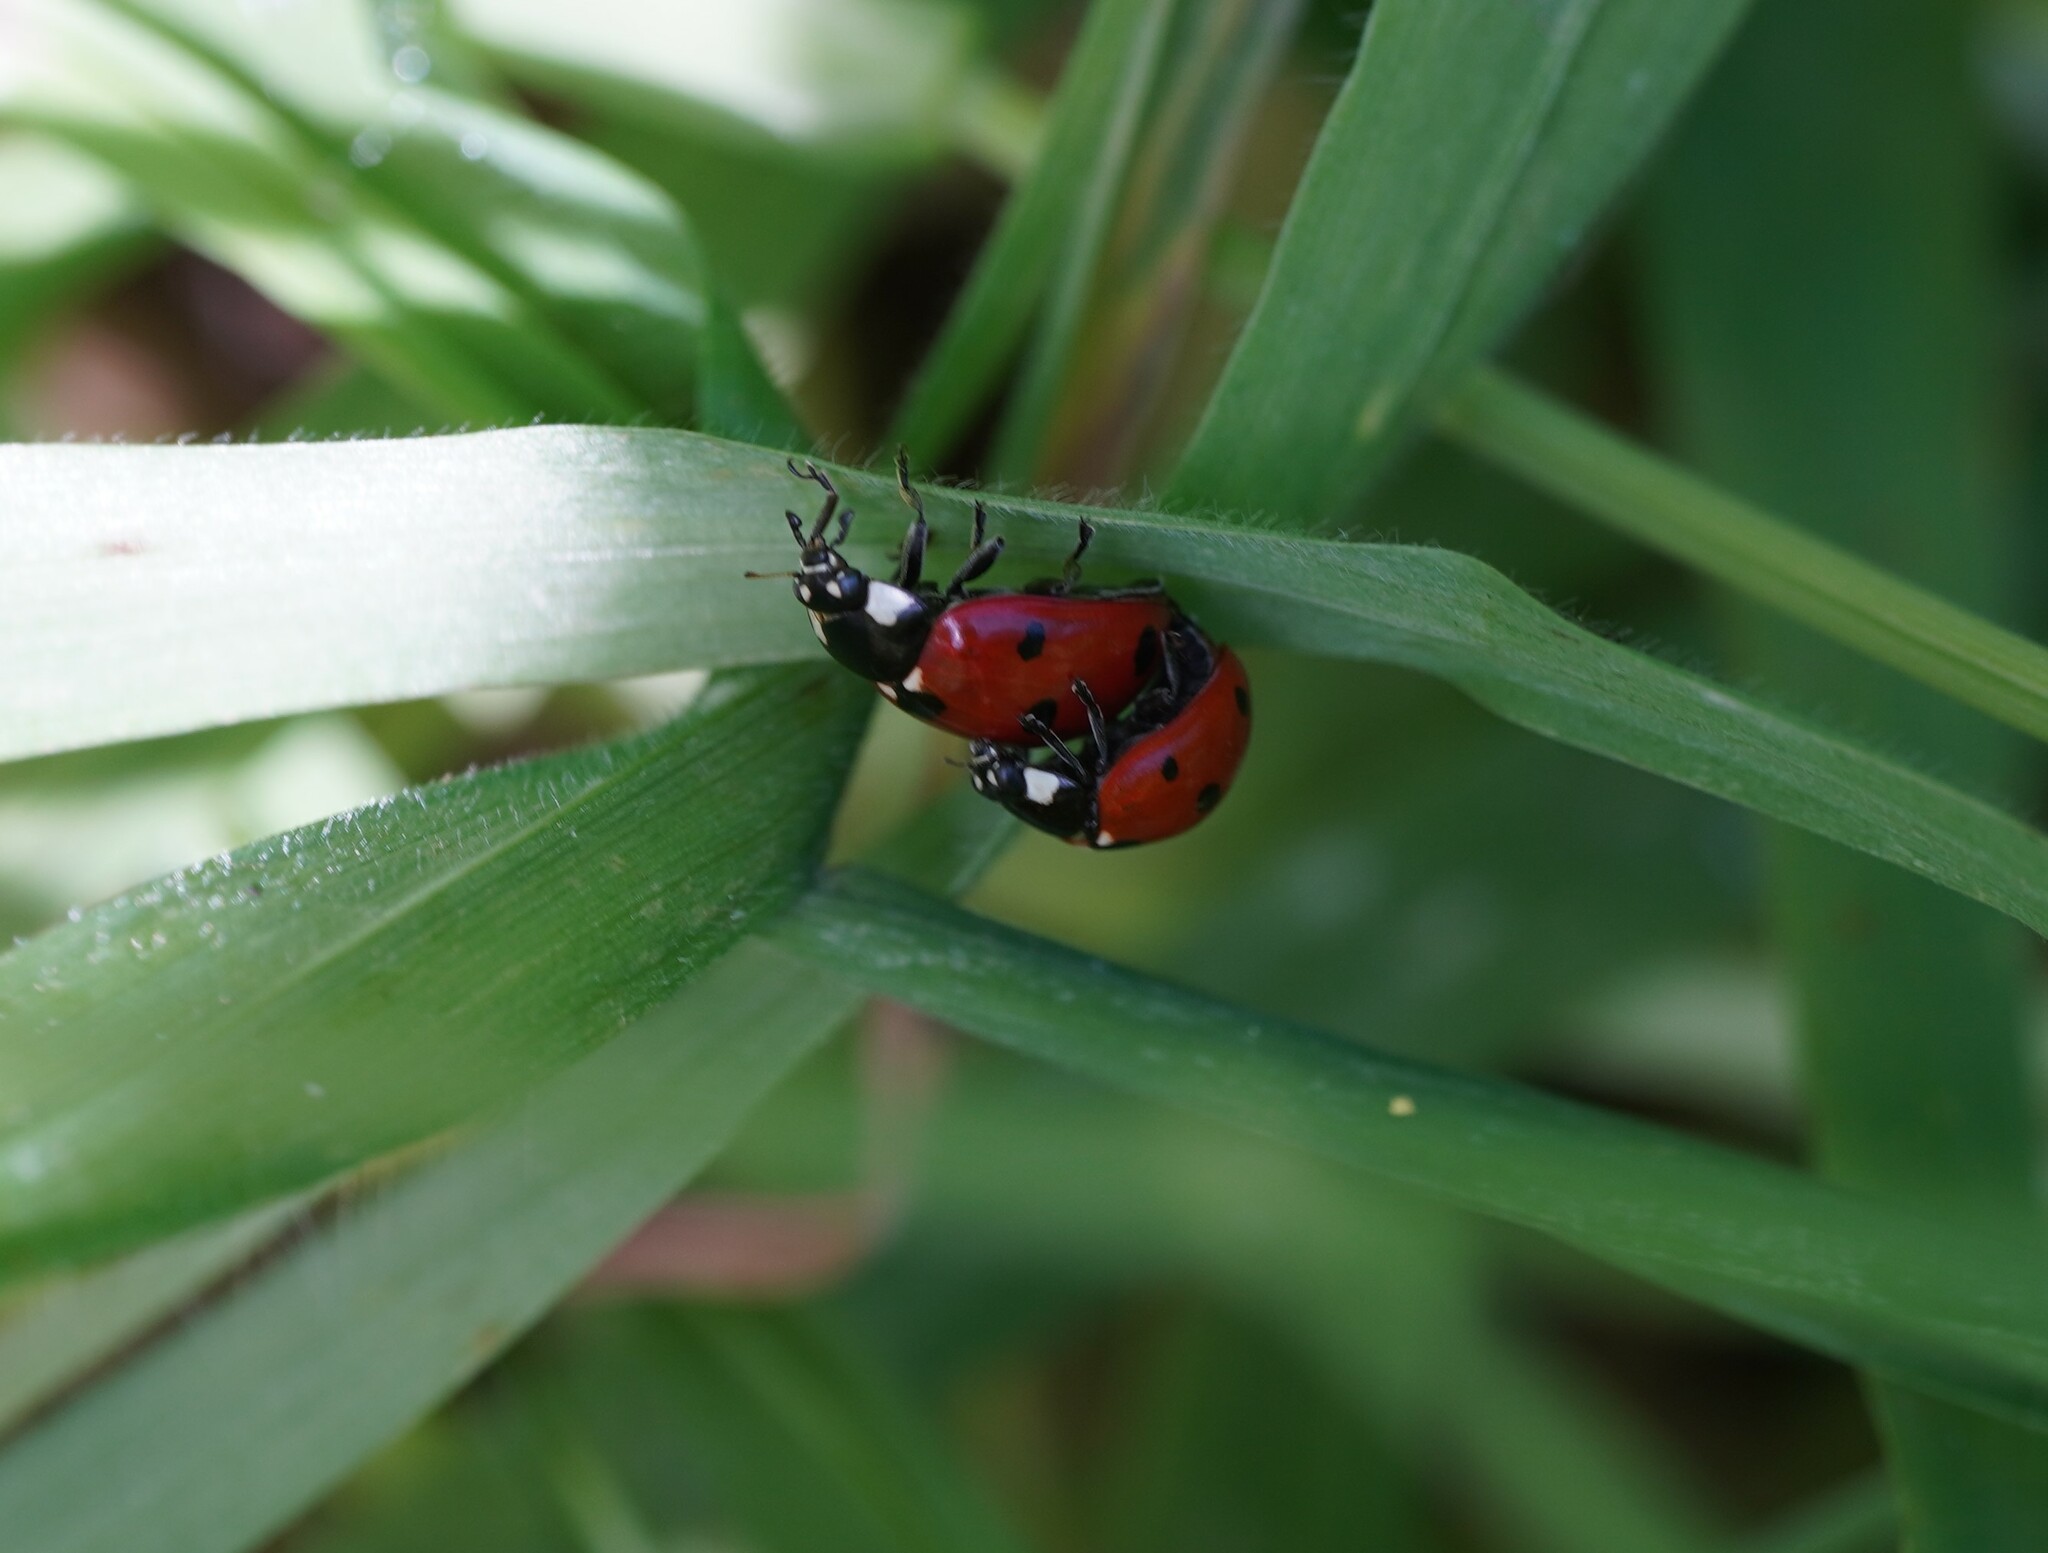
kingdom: Animalia
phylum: Arthropoda
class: Insecta
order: Coleoptera
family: Coccinellidae
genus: Coccinella
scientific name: Coccinella septempunctata
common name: Sevenspotted lady beetle
